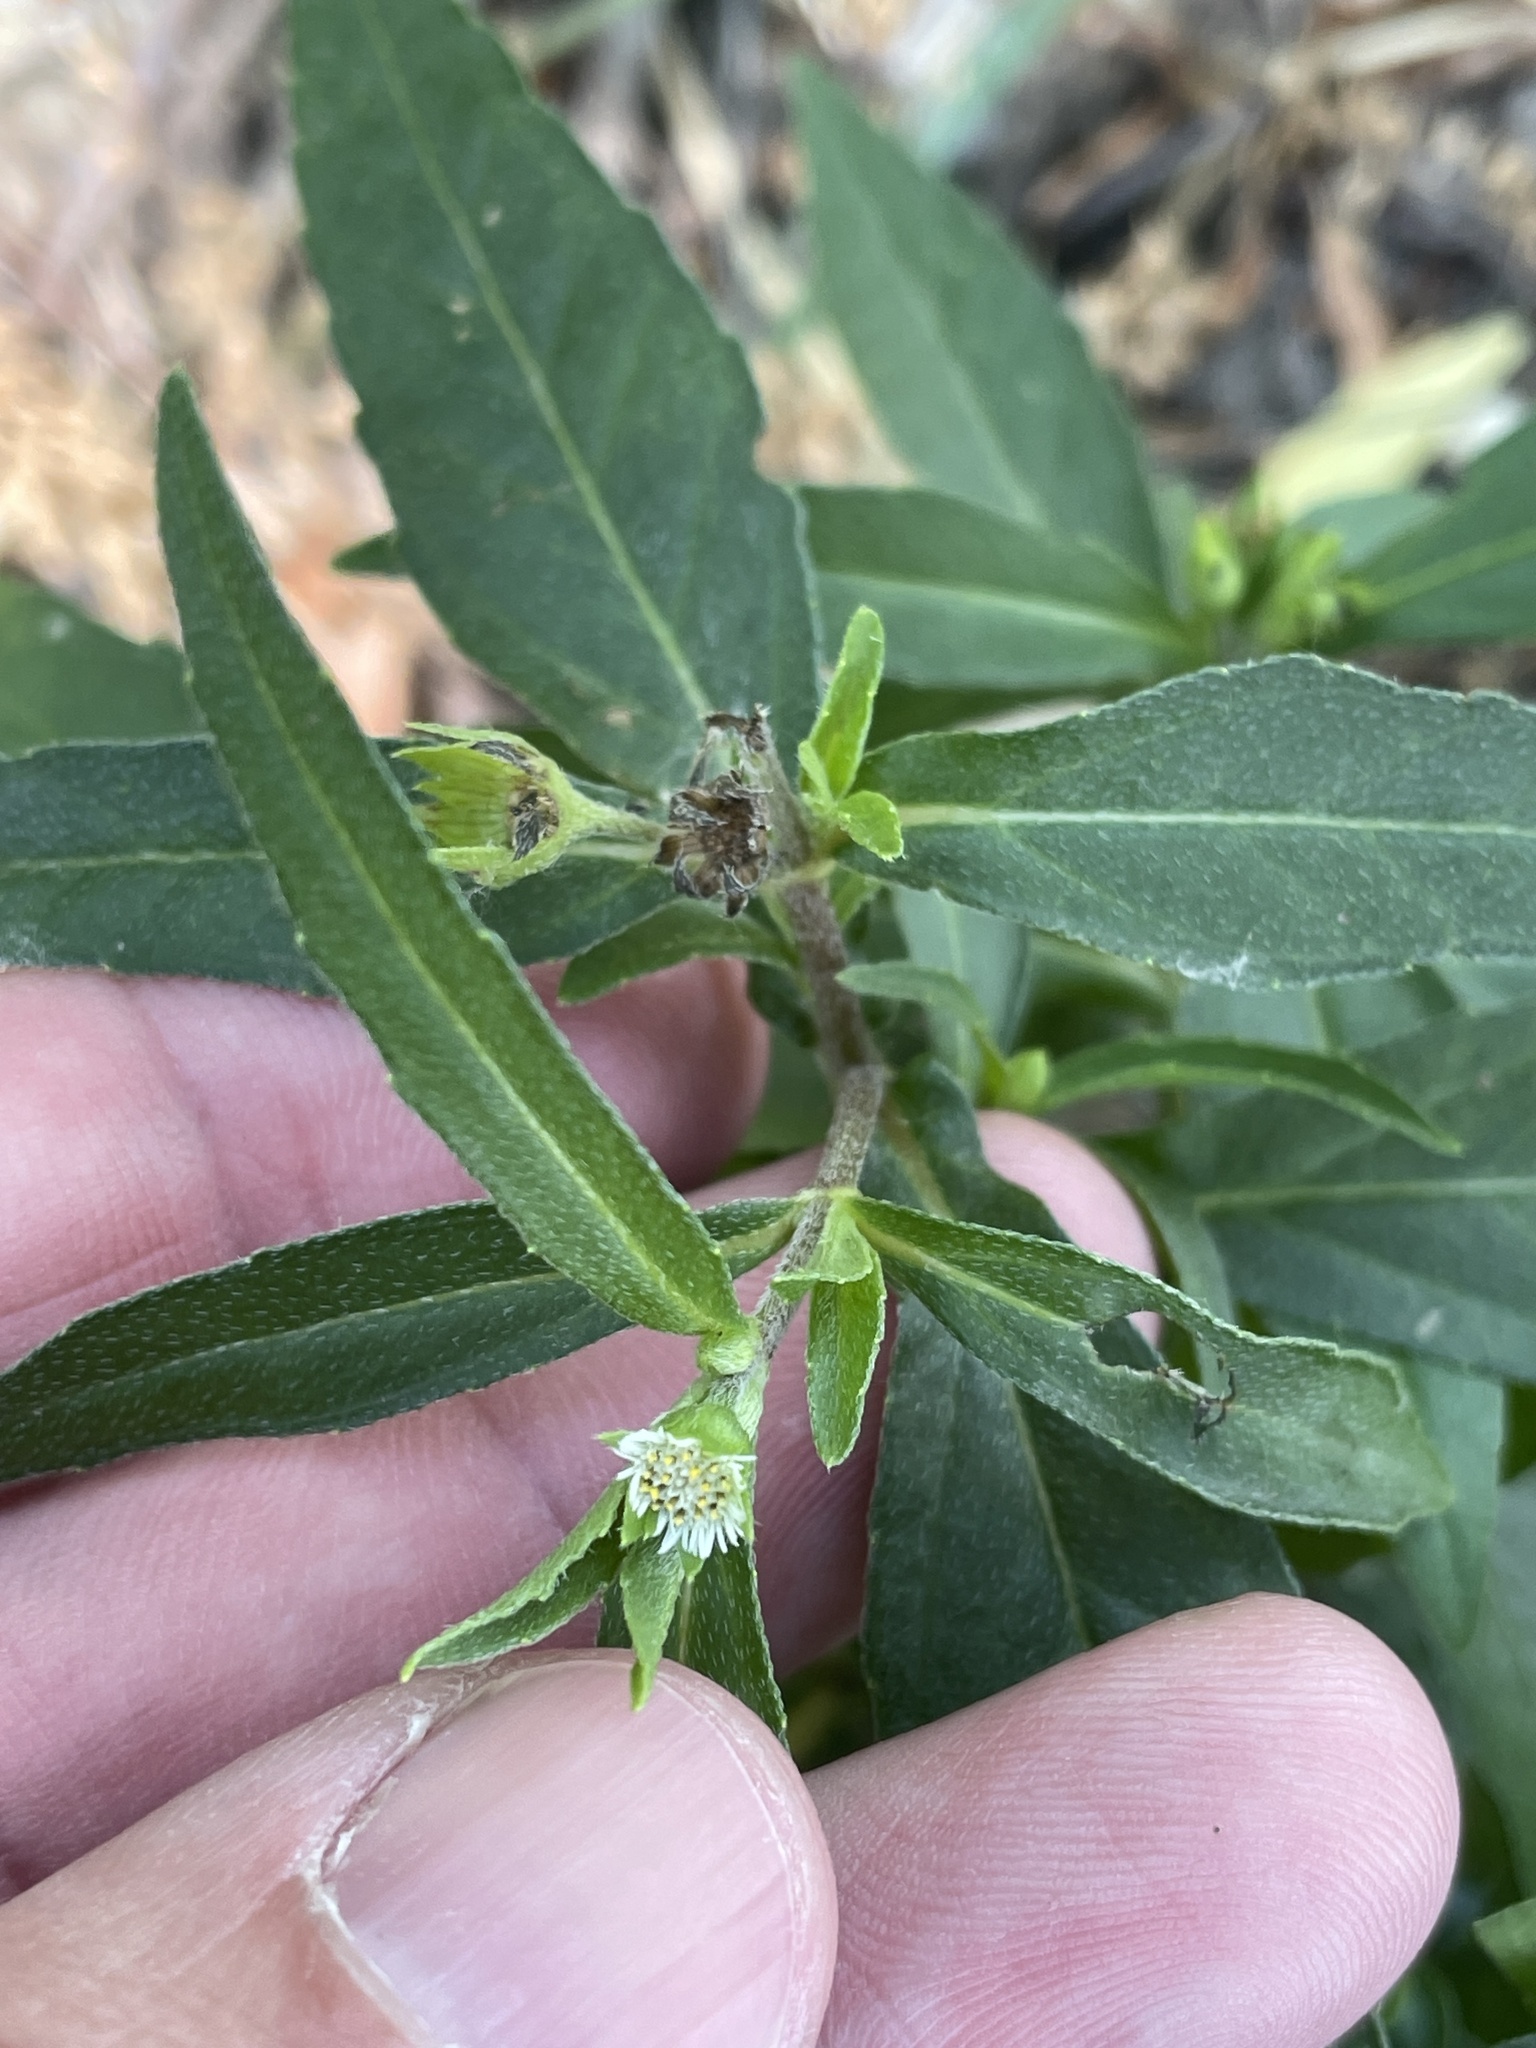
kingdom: Plantae
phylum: Tracheophyta
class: Magnoliopsida
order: Asterales
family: Asteraceae
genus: Eclipta
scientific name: Eclipta prostrata
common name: False daisy
